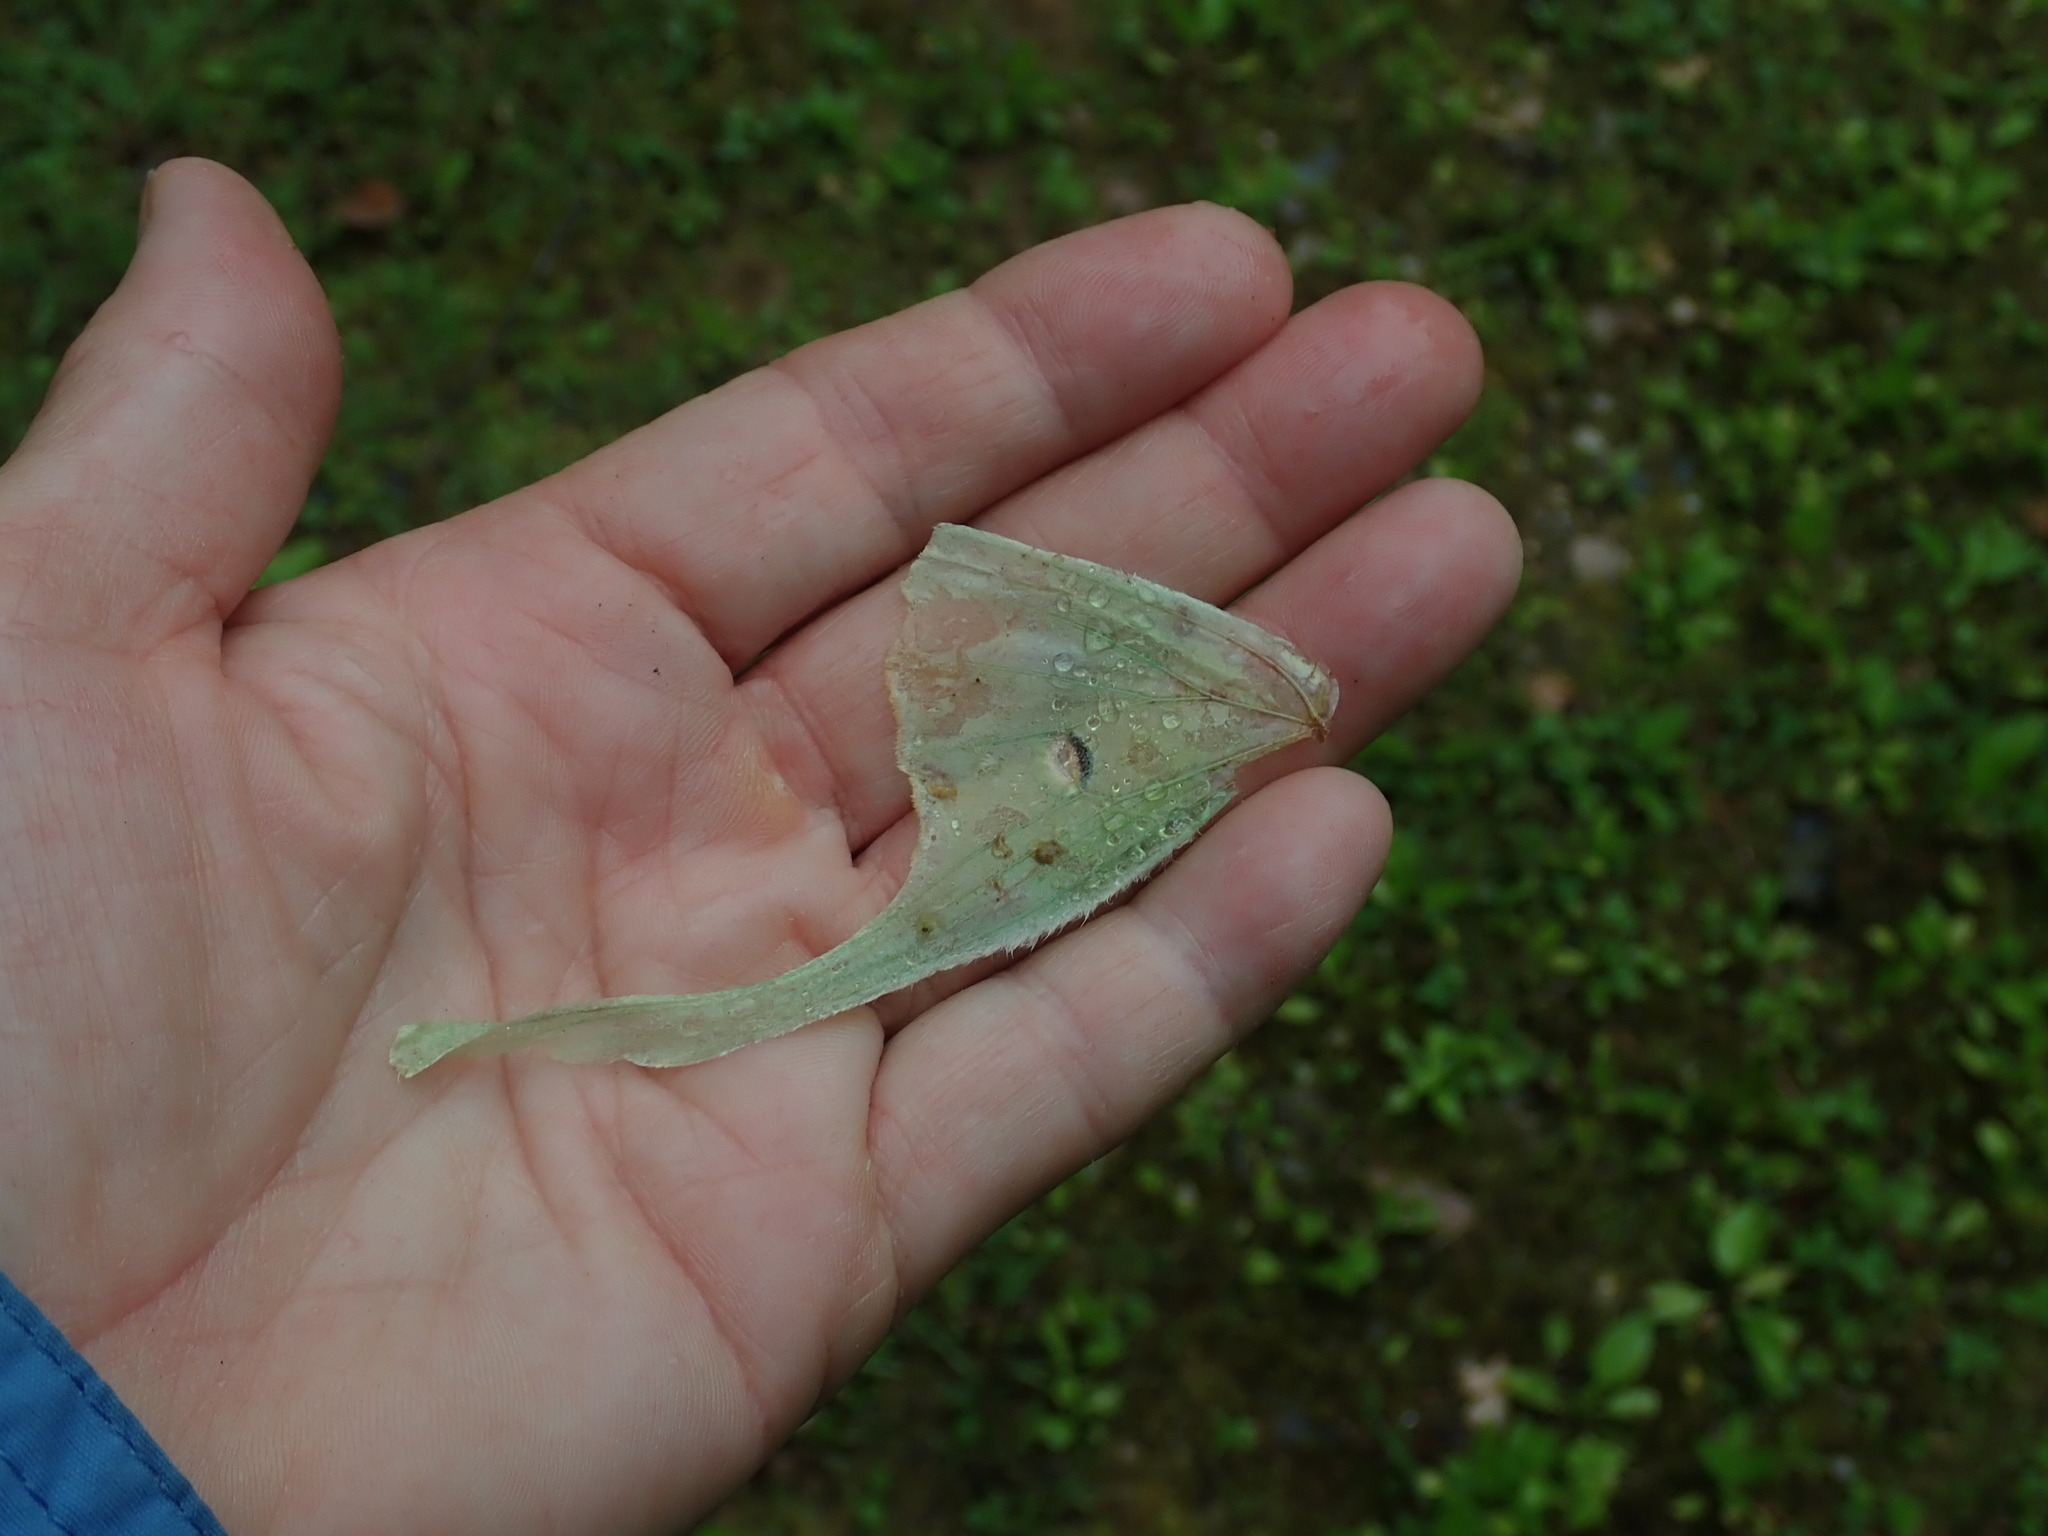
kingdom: Animalia
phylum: Arthropoda
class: Insecta
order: Lepidoptera
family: Saturniidae
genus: Actias
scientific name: Actias luna
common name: Luna moth
